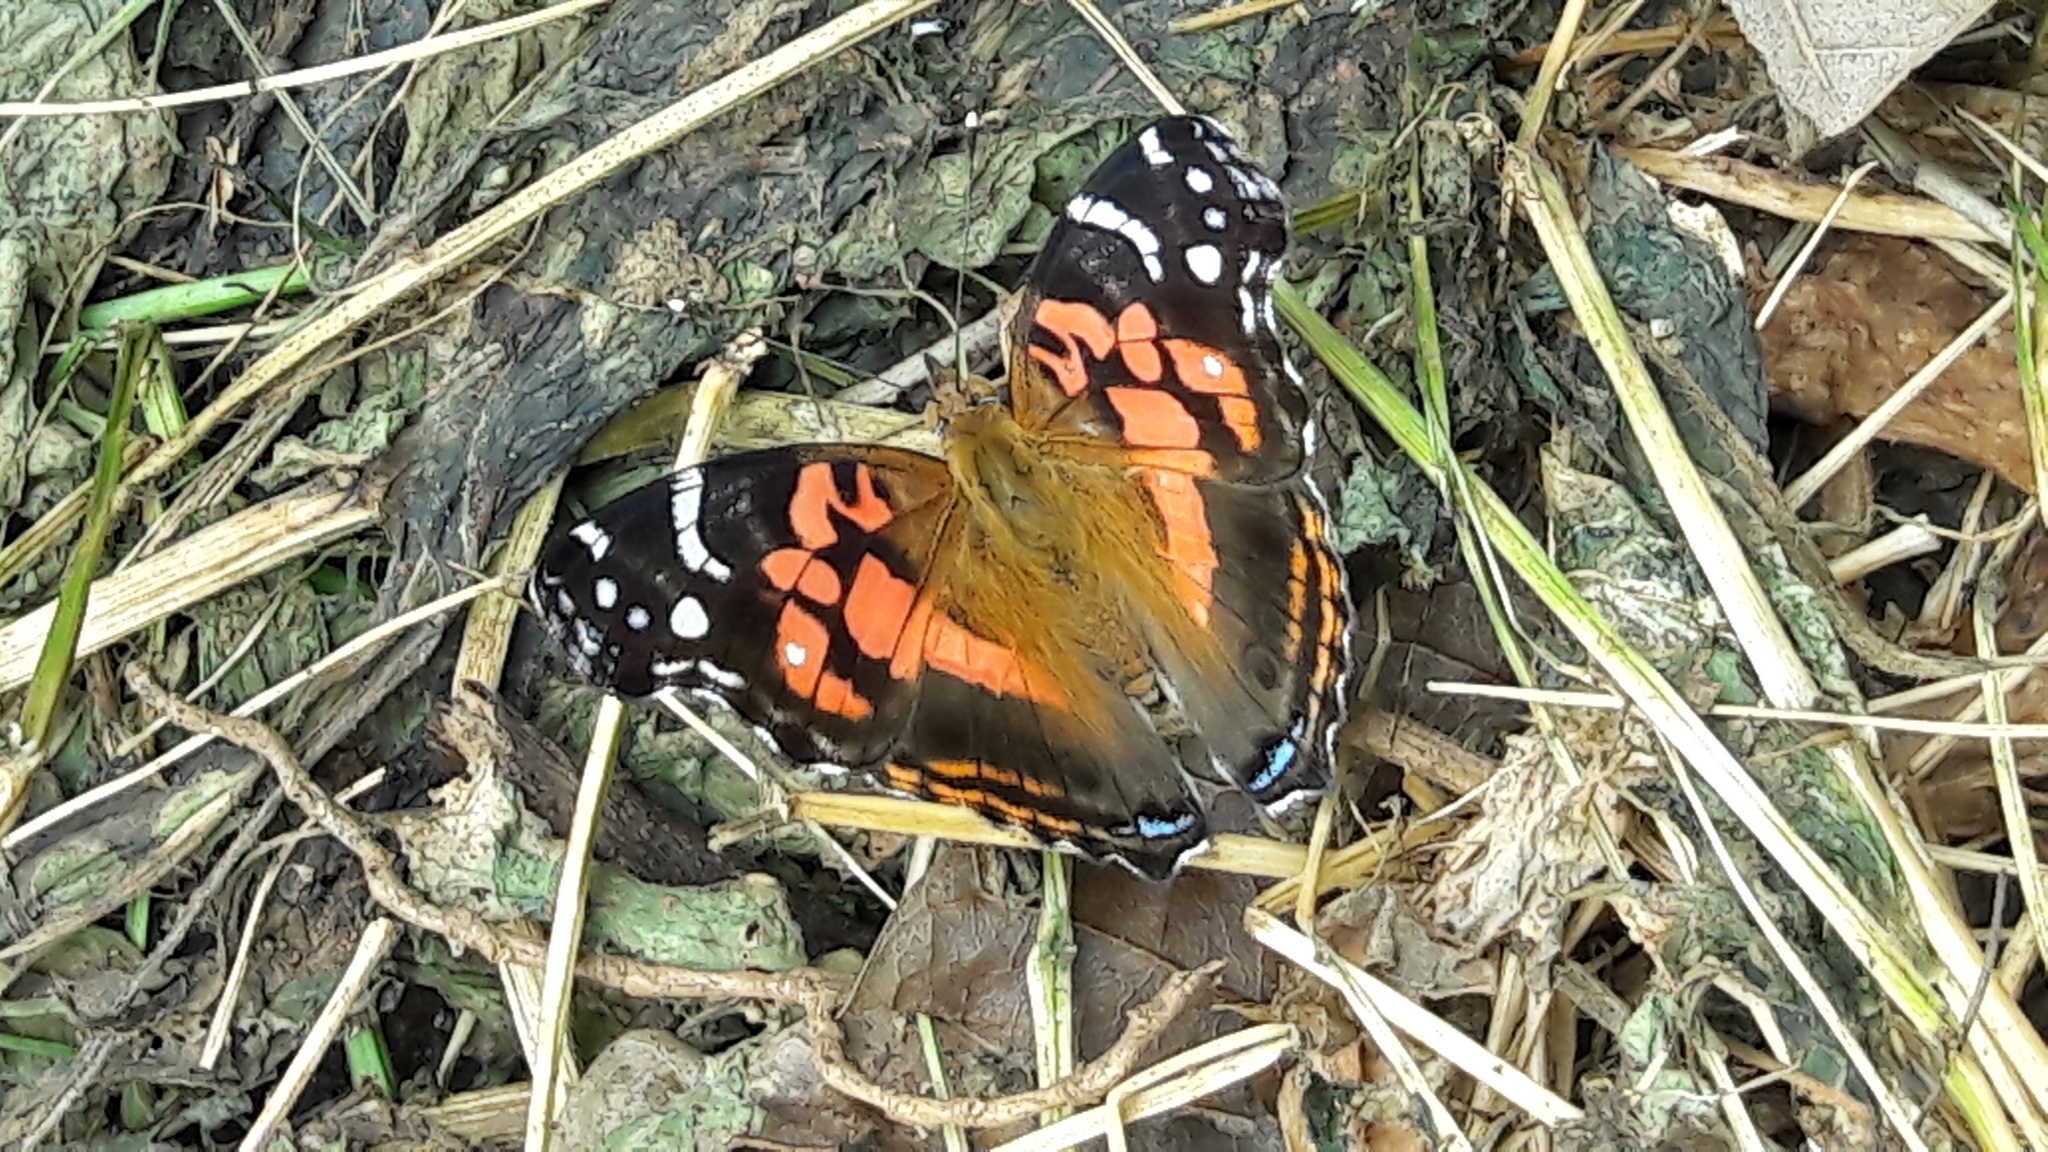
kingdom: Animalia
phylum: Arthropoda
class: Insecta
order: Lepidoptera
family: Nymphalidae
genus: Vanessa
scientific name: Vanessa myrinna
